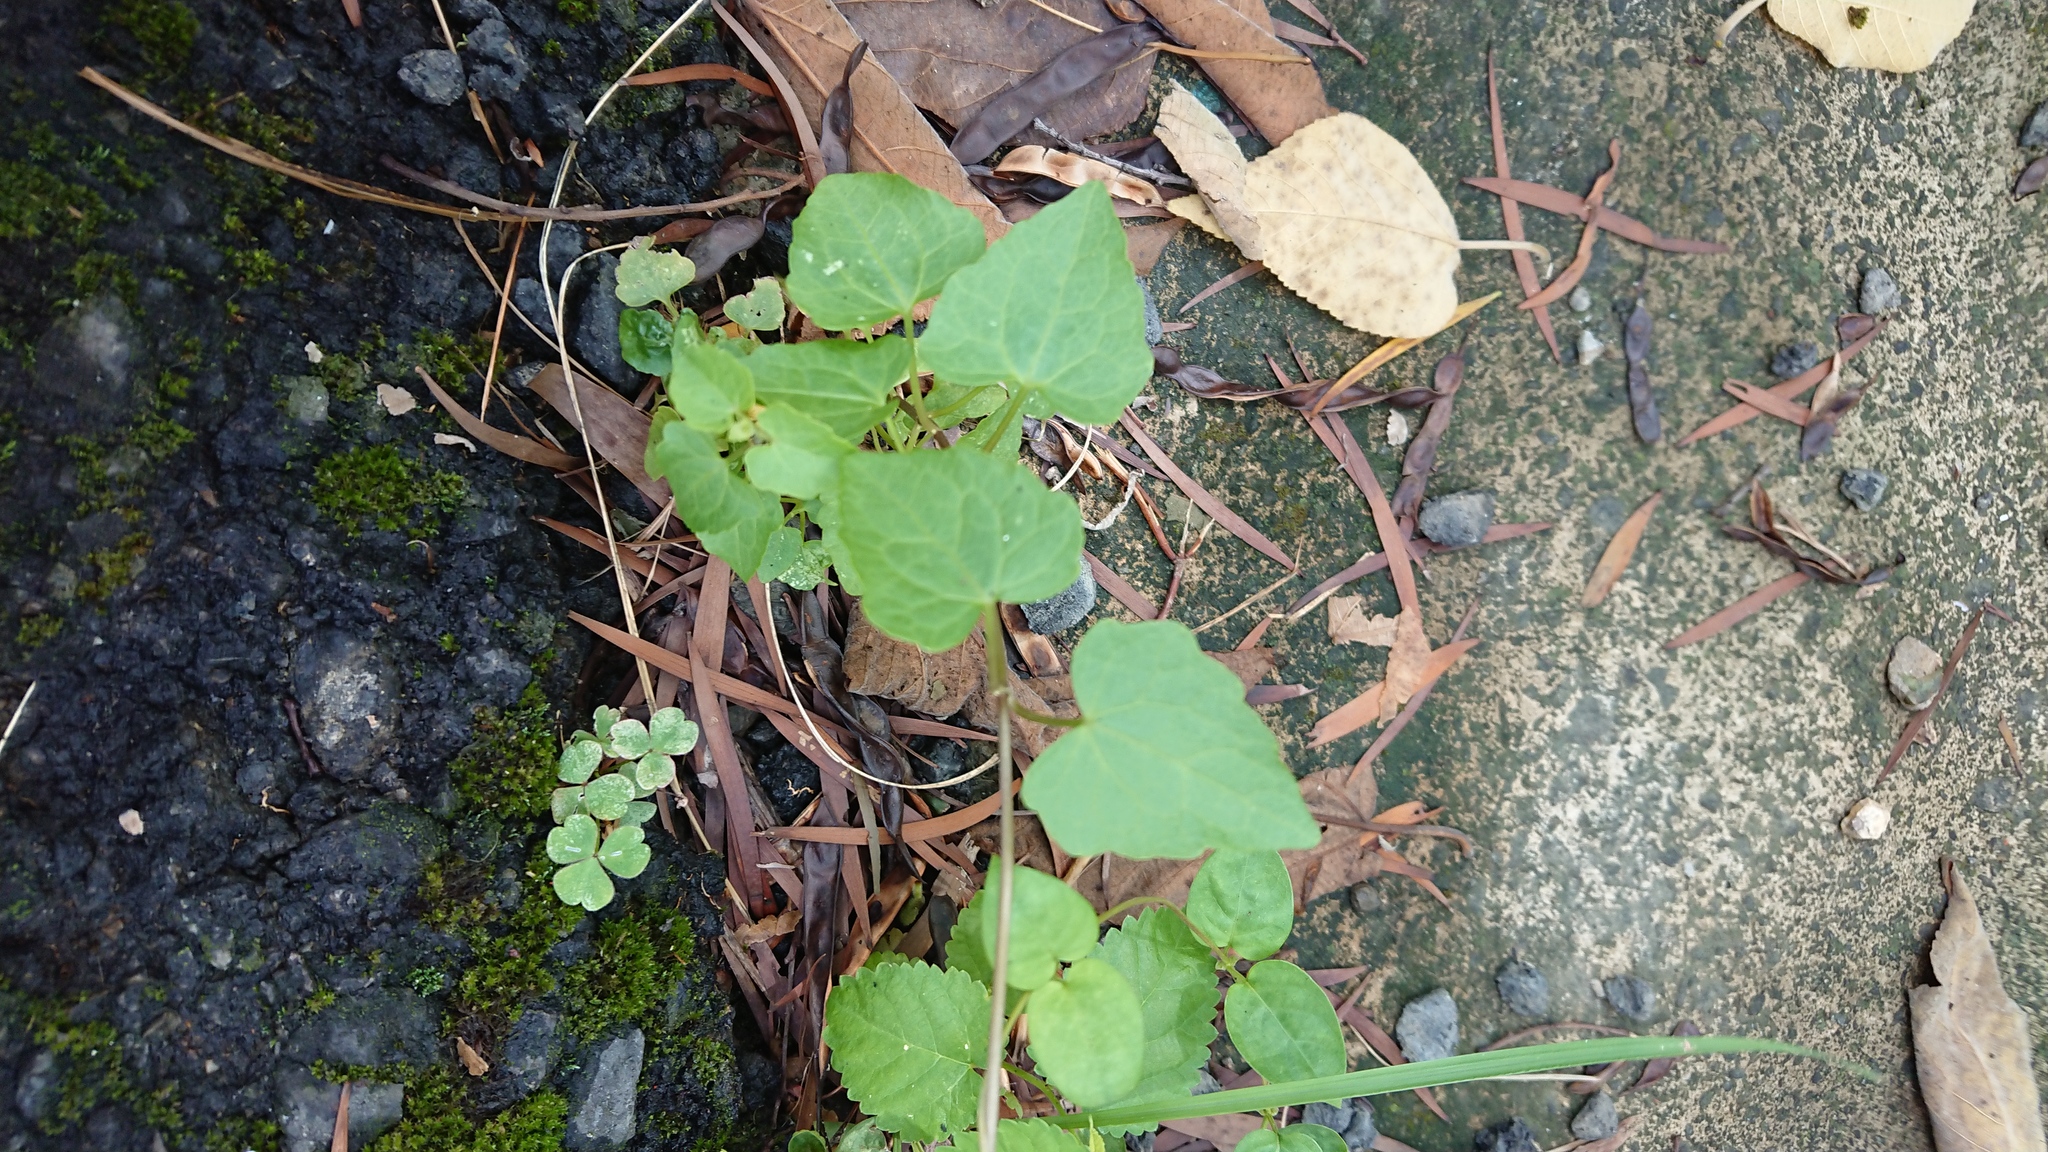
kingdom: Plantae
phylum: Tracheophyta
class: Magnoliopsida
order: Asterales
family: Asteraceae
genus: Mikania
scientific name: Mikania micrantha
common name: Mile-a-minute
